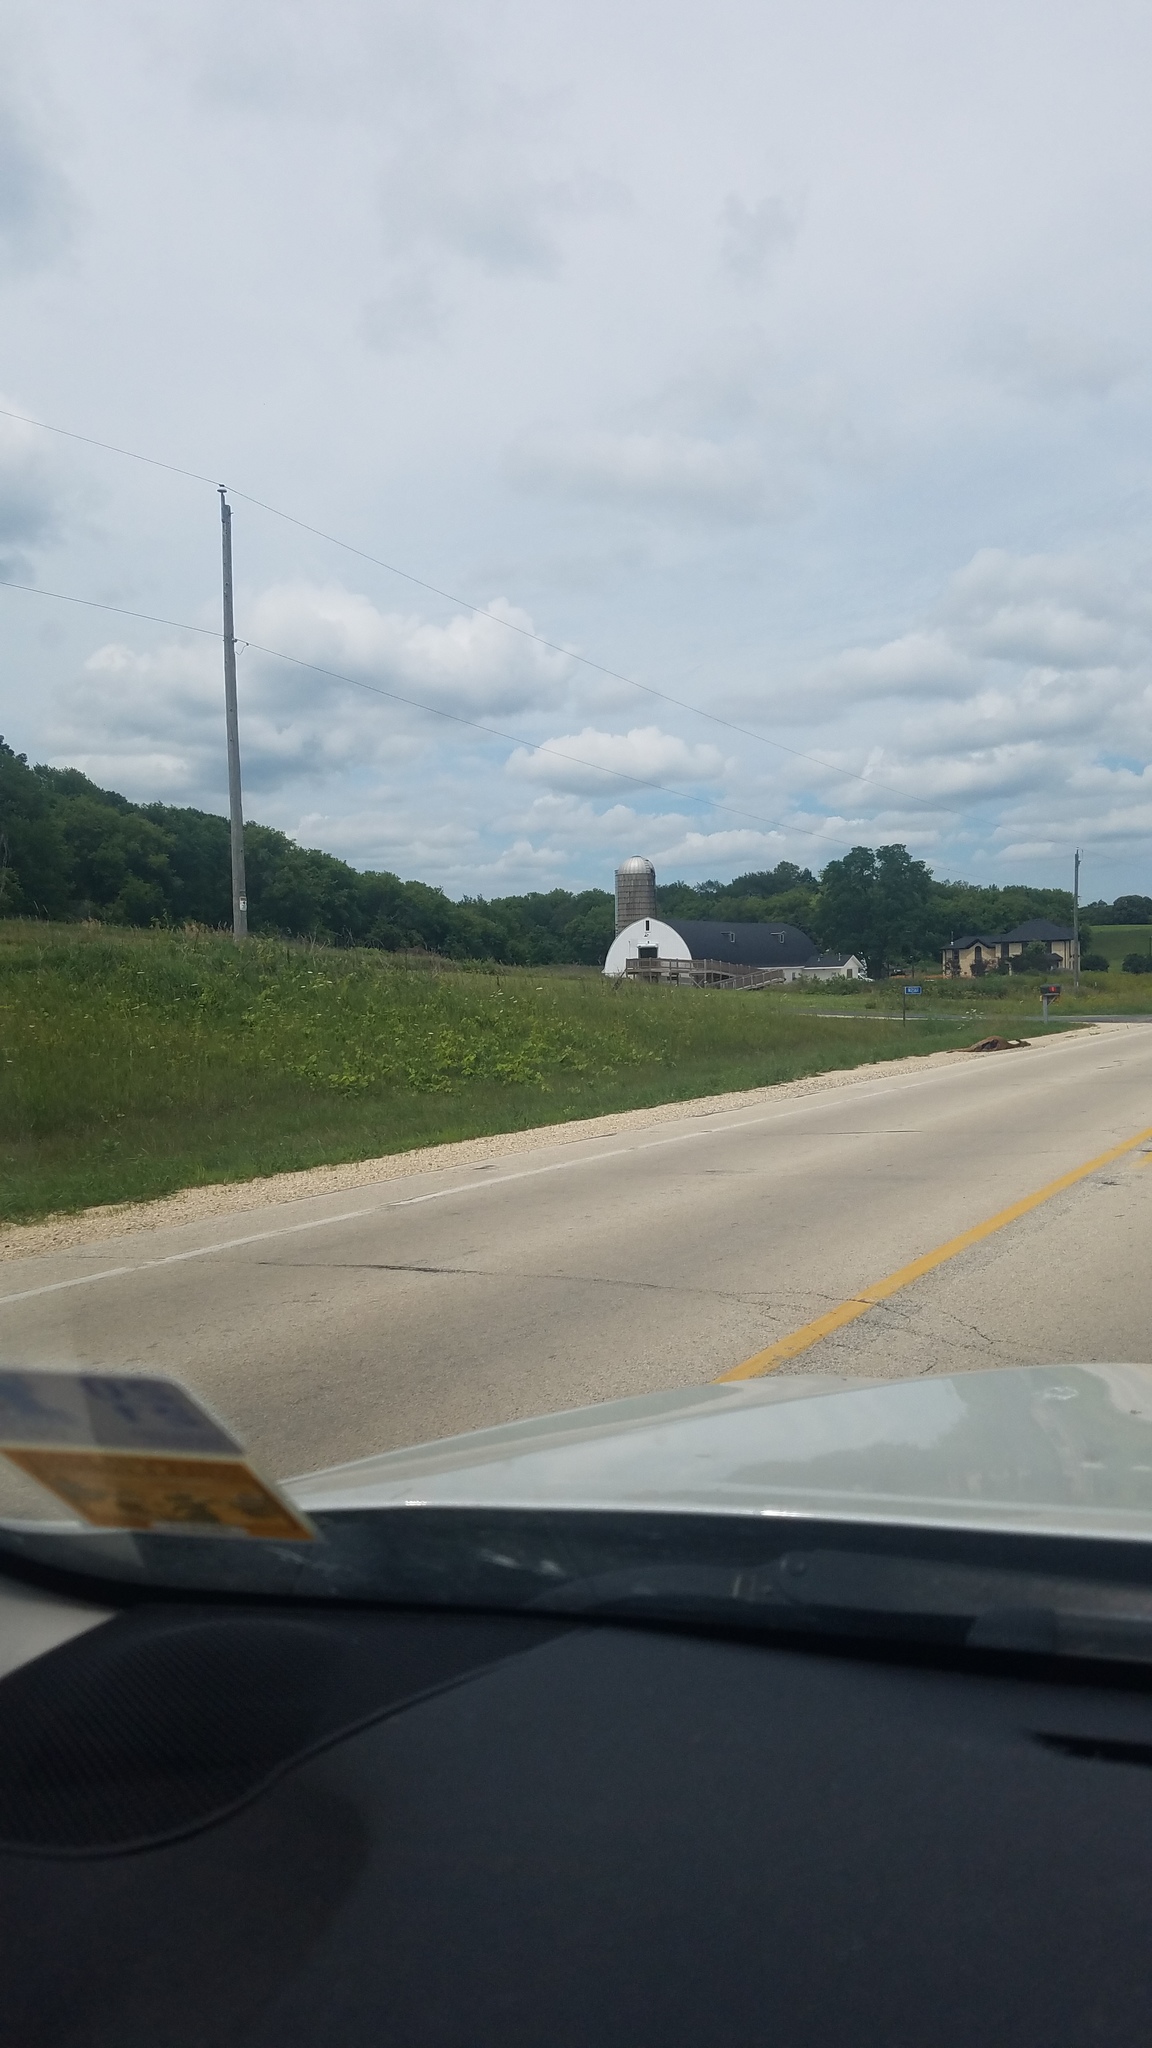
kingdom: Animalia
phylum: Chordata
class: Mammalia
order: Artiodactyla
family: Cervidae
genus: Odocoileus
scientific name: Odocoileus virginianus
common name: White-tailed deer
